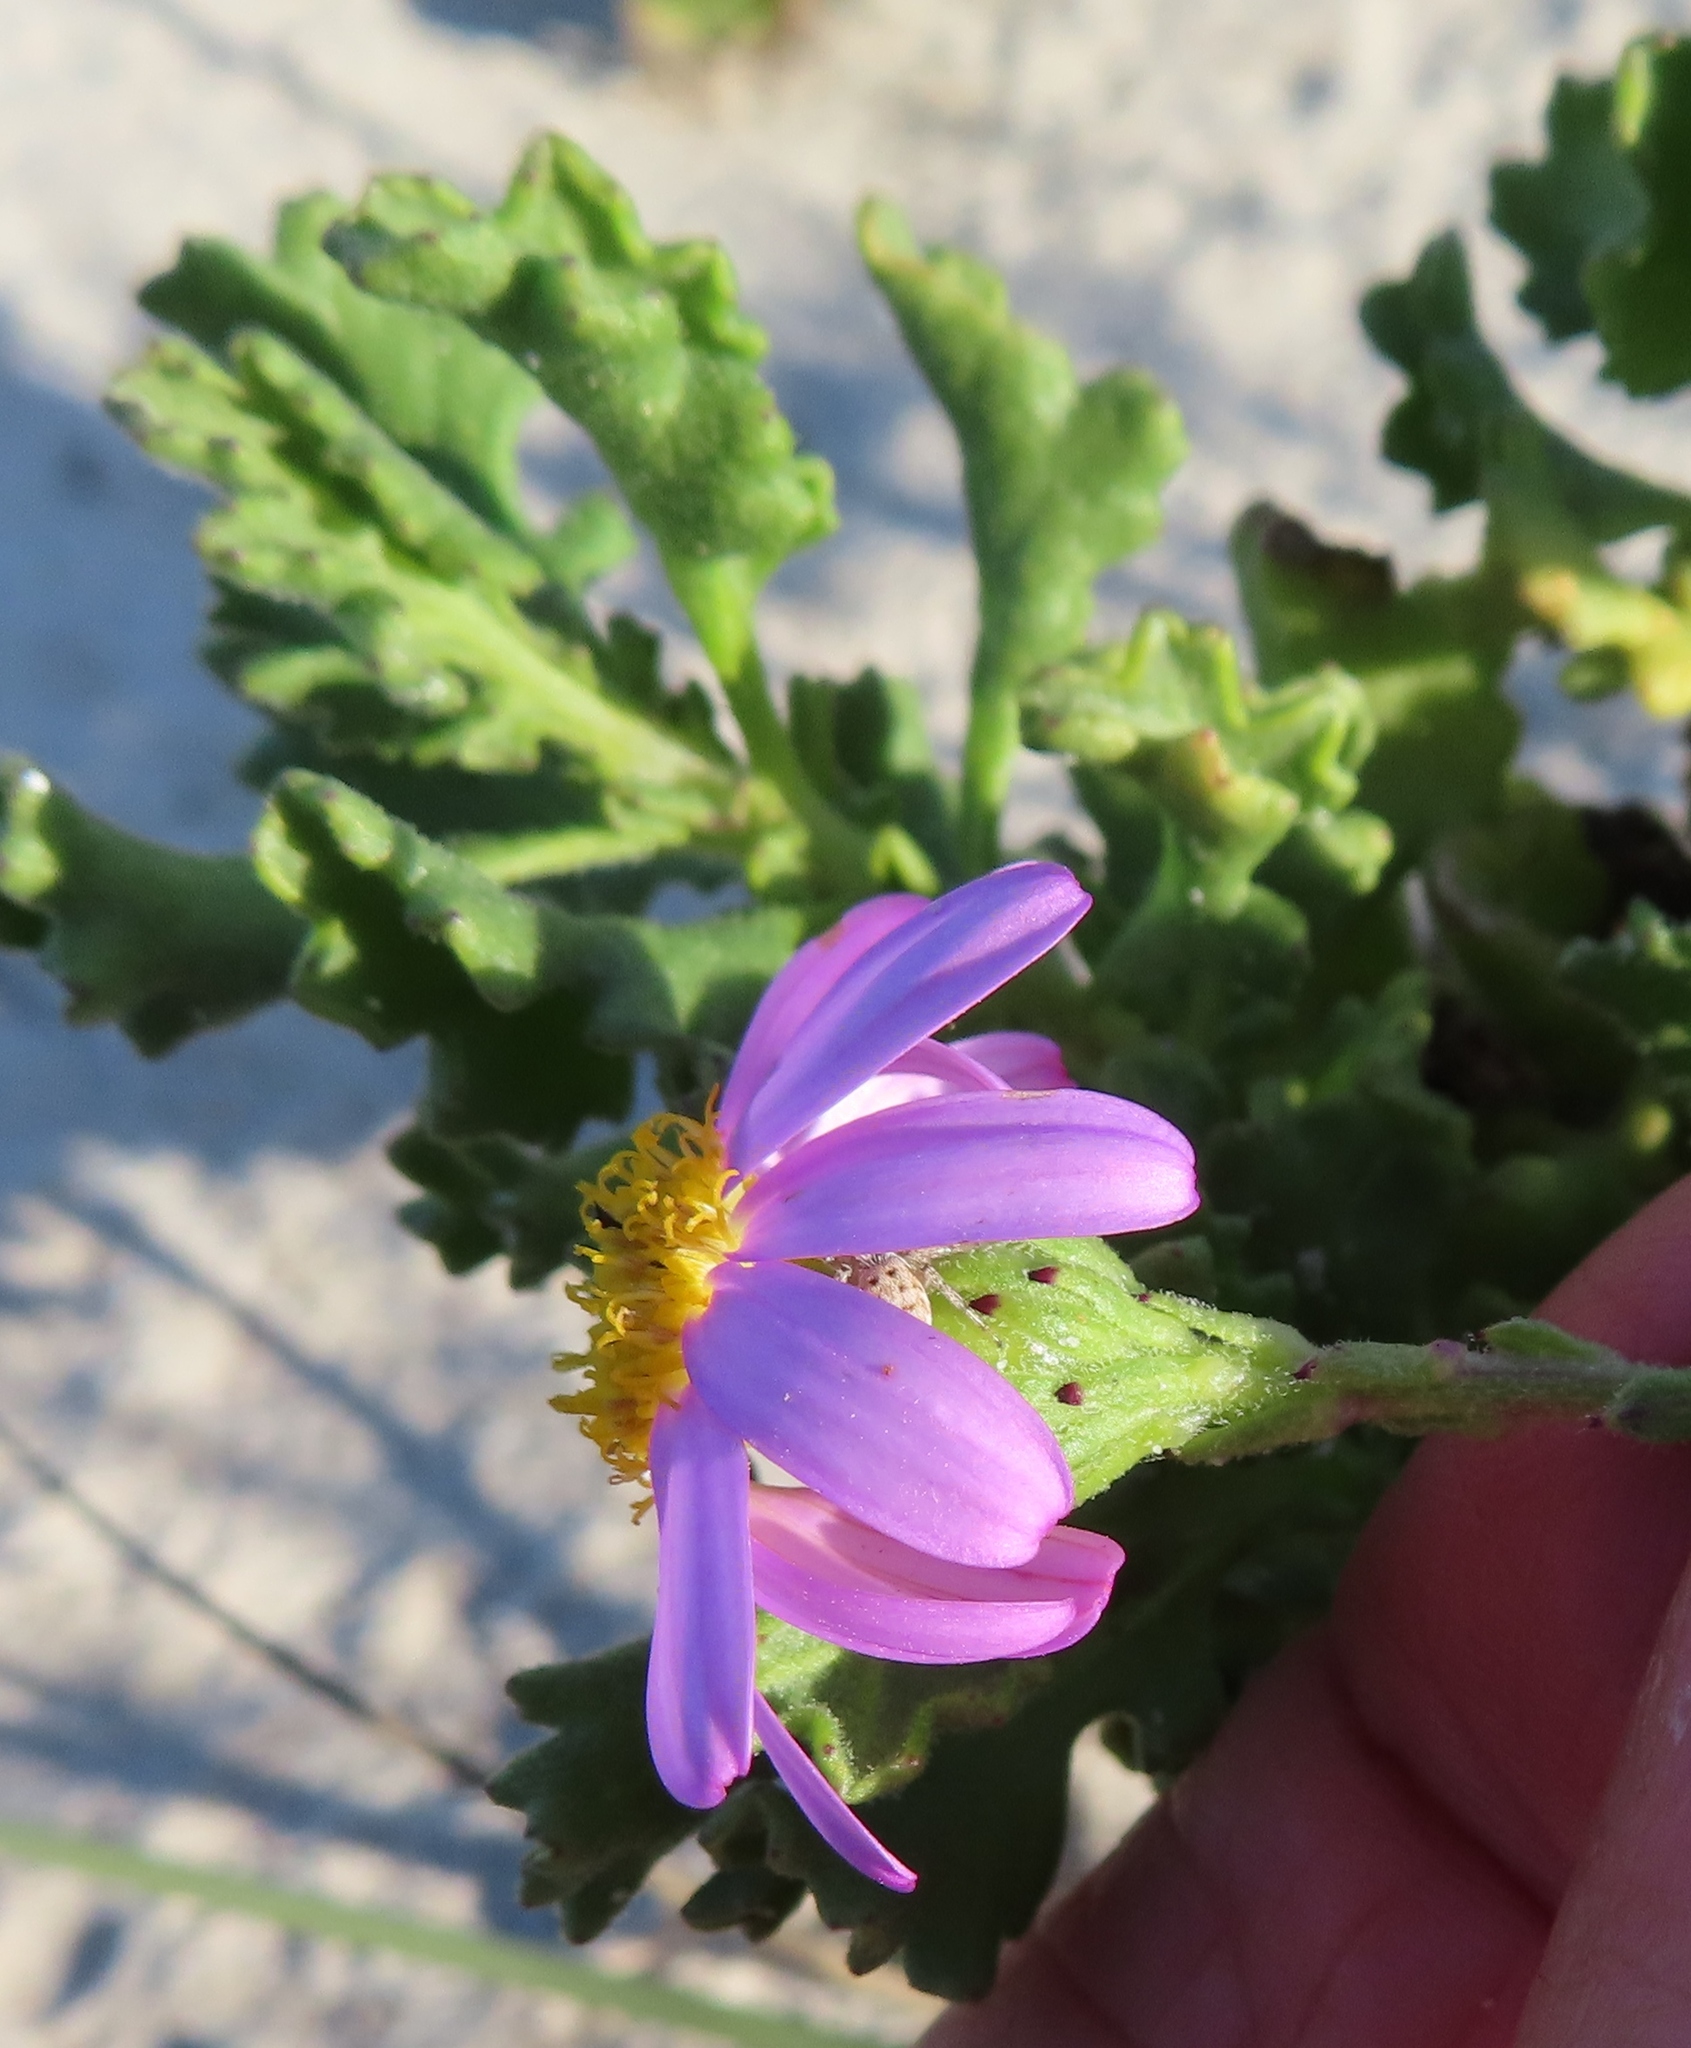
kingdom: Plantae
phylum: Tracheophyta
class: Magnoliopsida
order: Asterales
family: Asteraceae
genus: Senecio
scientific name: Senecio elegans
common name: Purple groundsel
